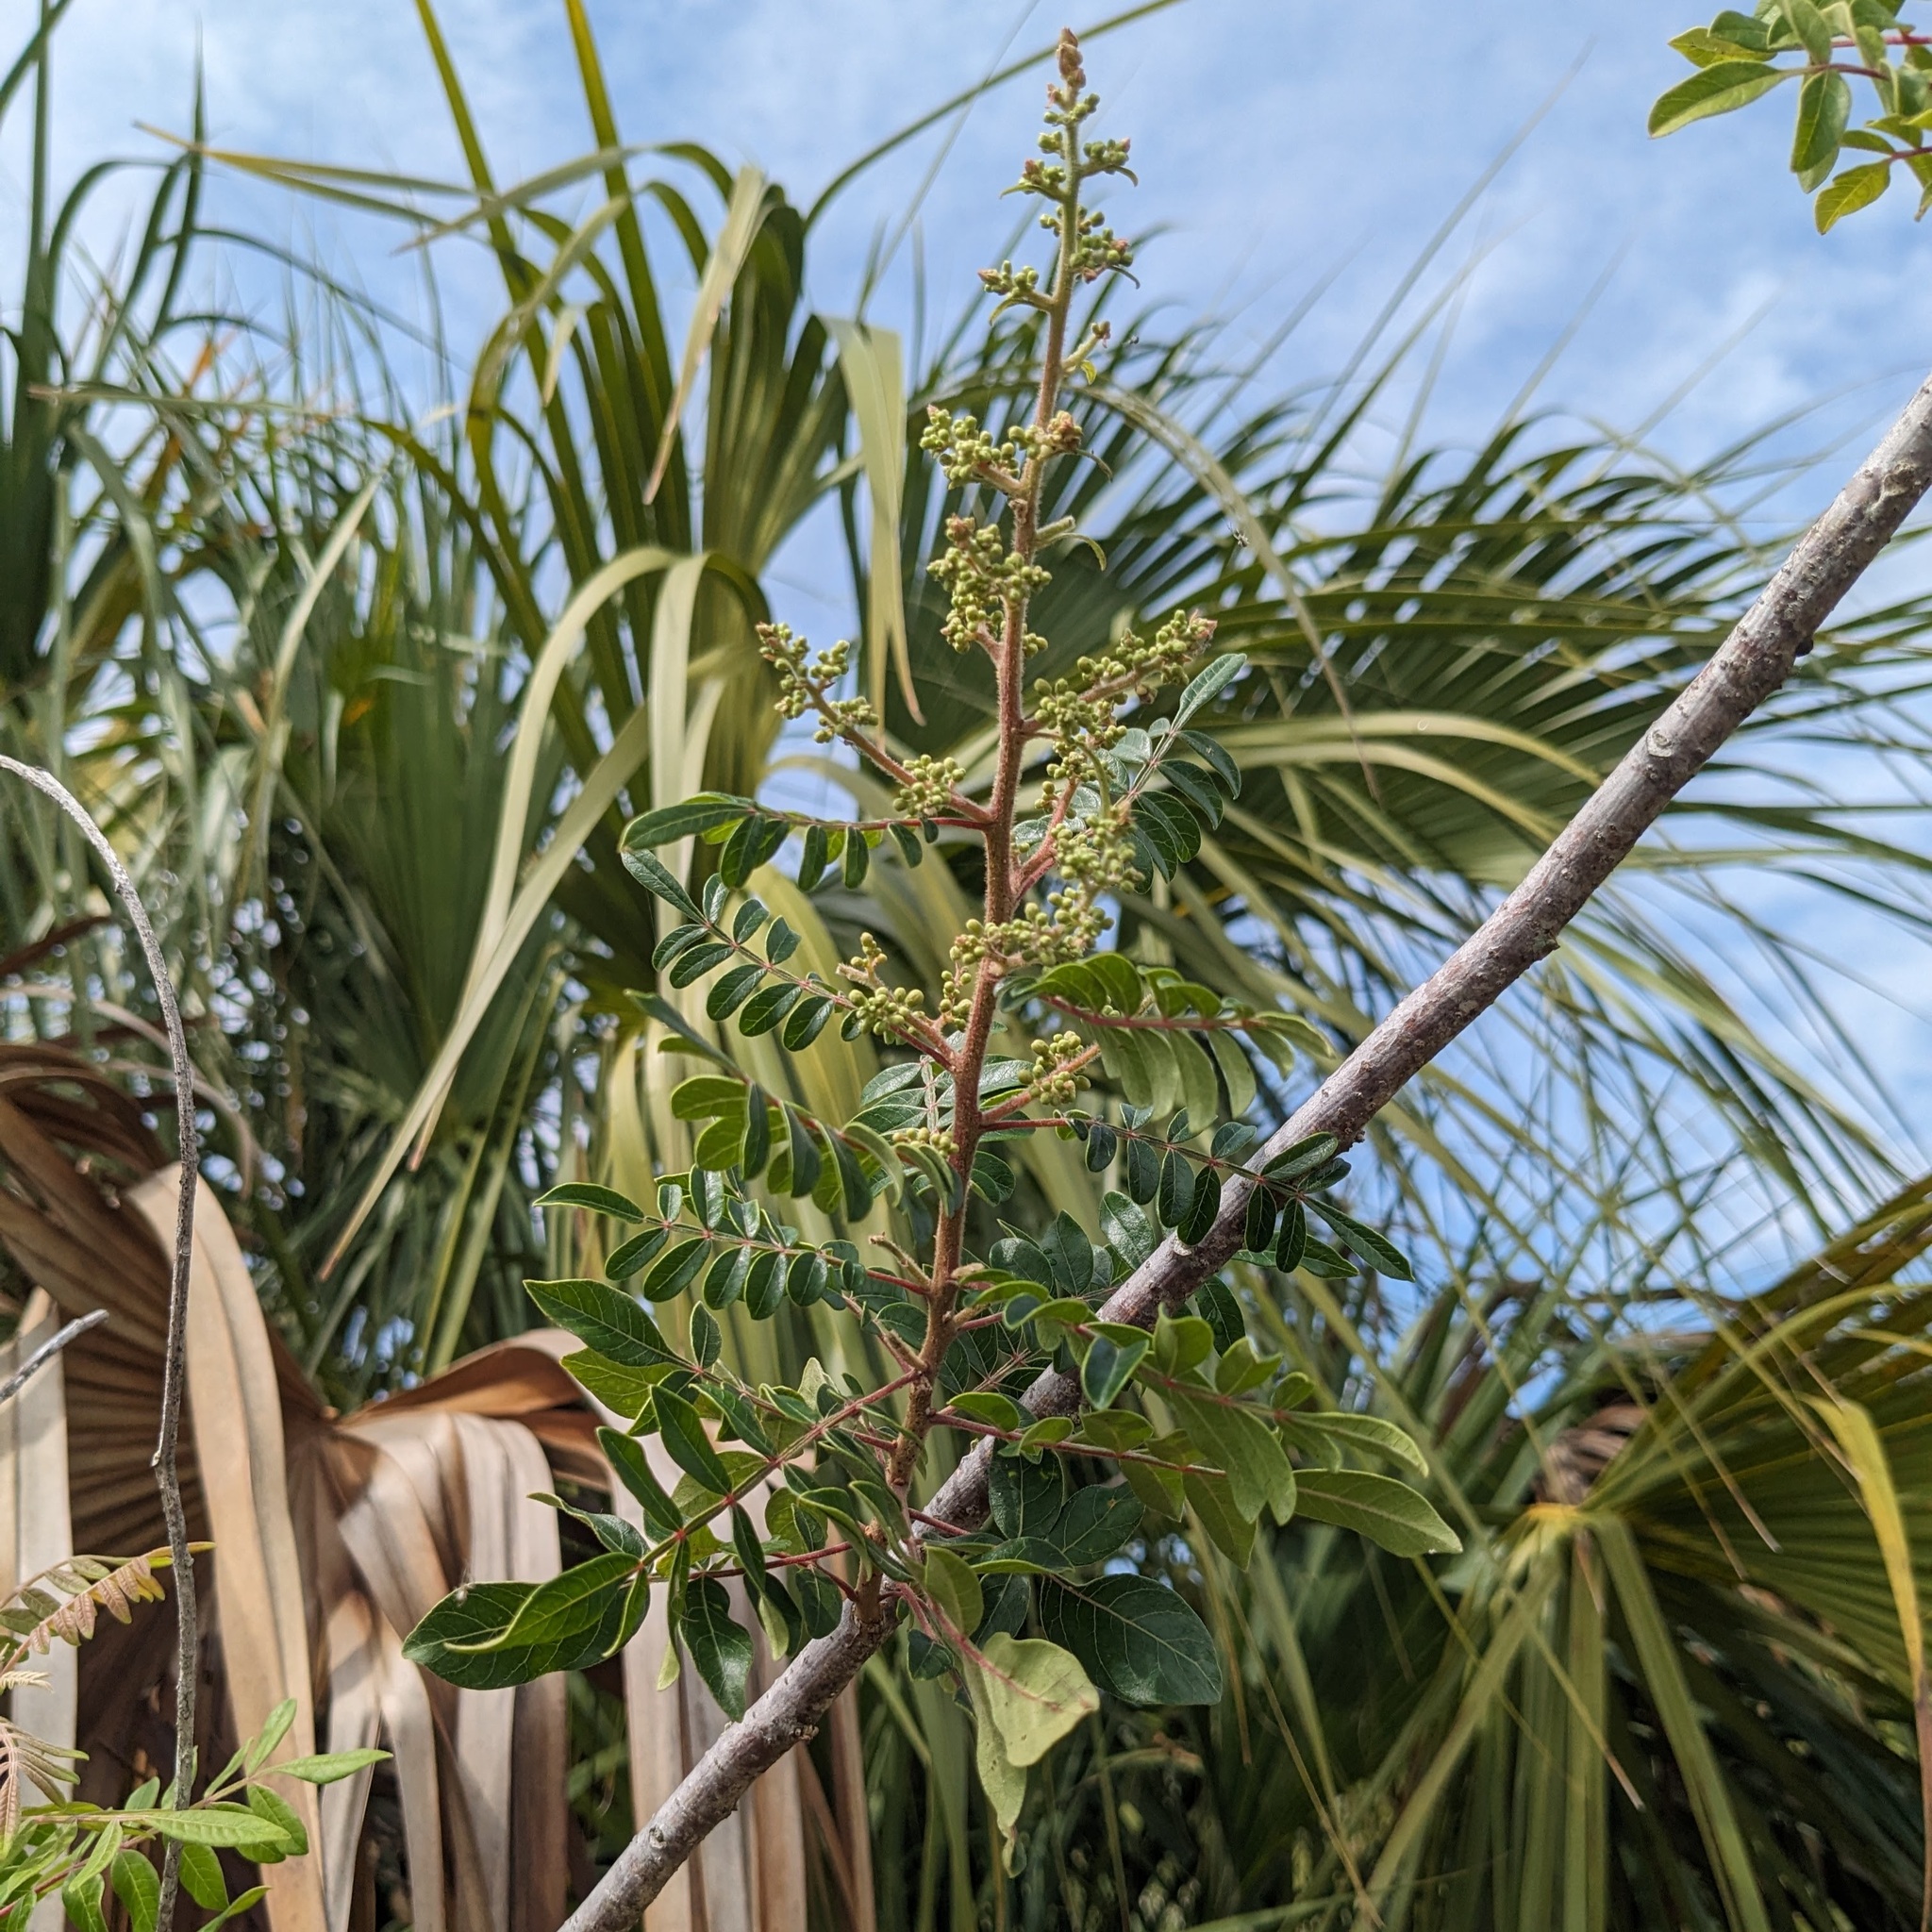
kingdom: Plantae
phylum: Tracheophyta
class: Magnoliopsida
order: Sapindales
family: Anacardiaceae
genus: Rhus
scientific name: Rhus copallina
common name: Shining sumac
